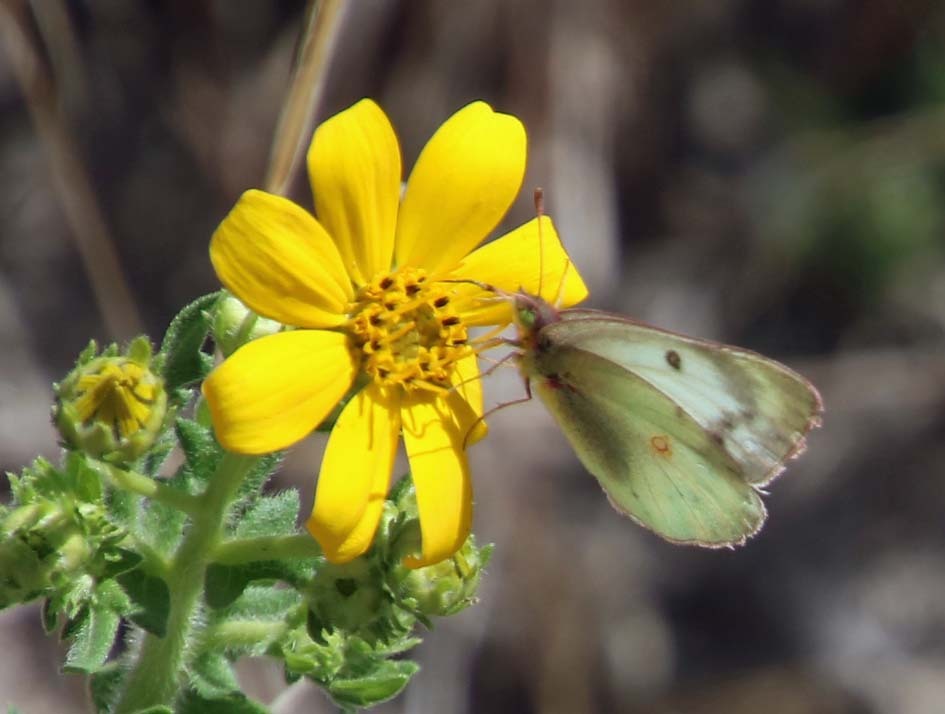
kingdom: Animalia
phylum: Arthropoda
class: Insecta
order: Lepidoptera
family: Pieridae
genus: Colias
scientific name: Colias eurytheme
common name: Alfalfa butterfly
